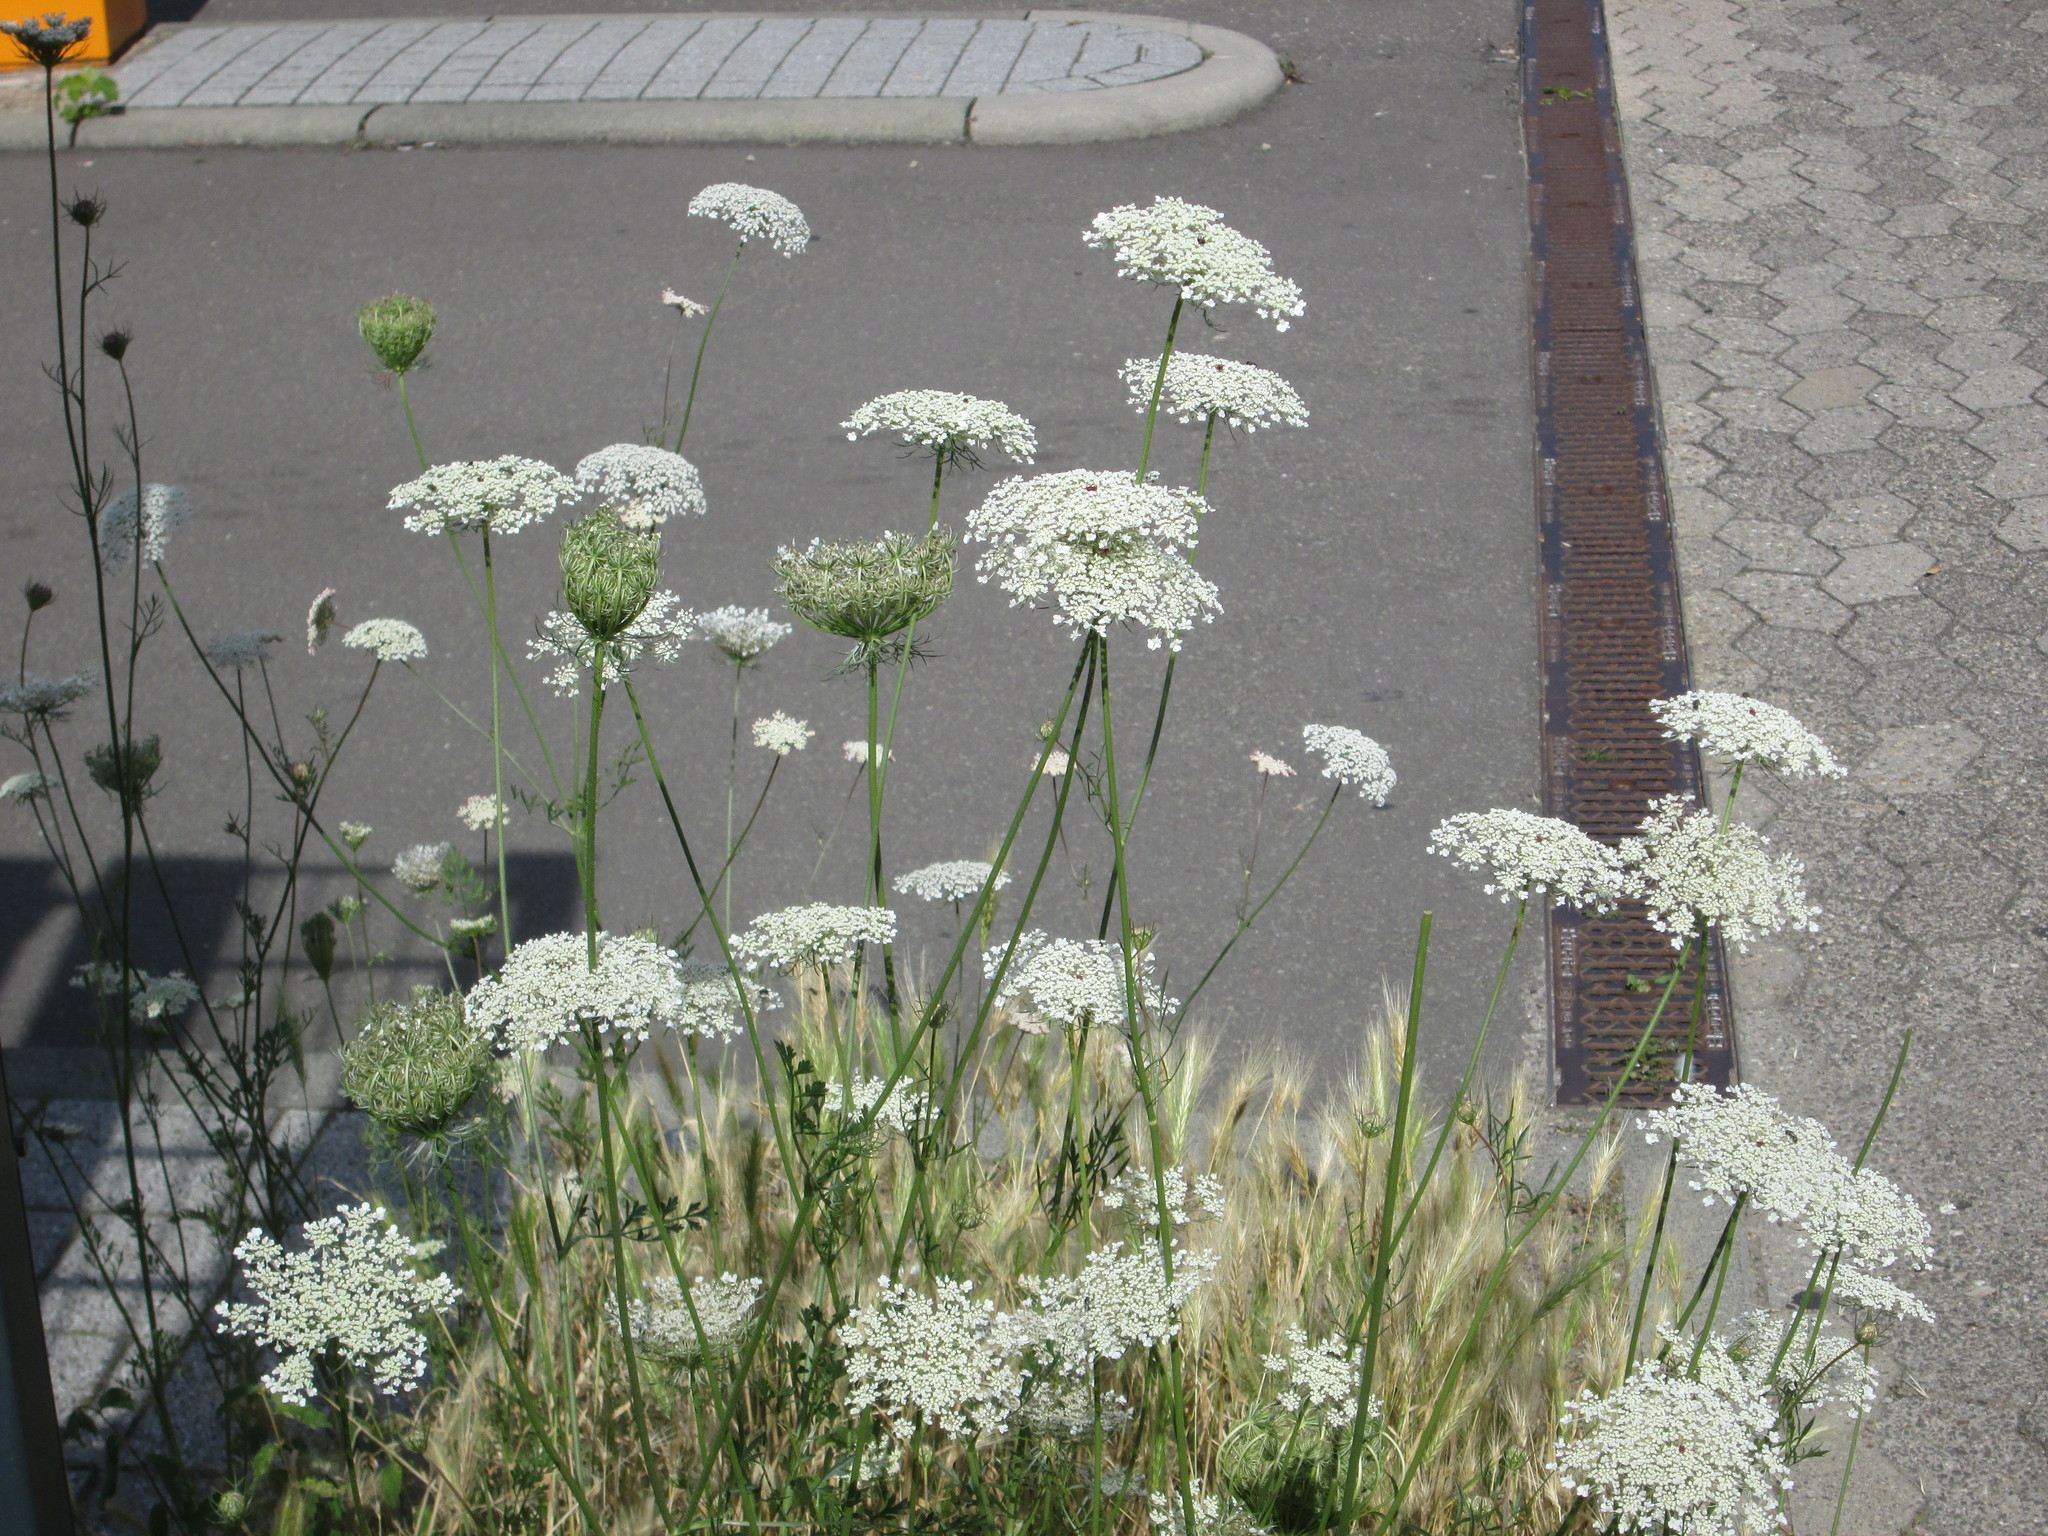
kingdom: Plantae
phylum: Tracheophyta
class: Magnoliopsida
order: Apiales
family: Apiaceae
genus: Daucus
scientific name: Daucus carota
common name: Wild carrot
